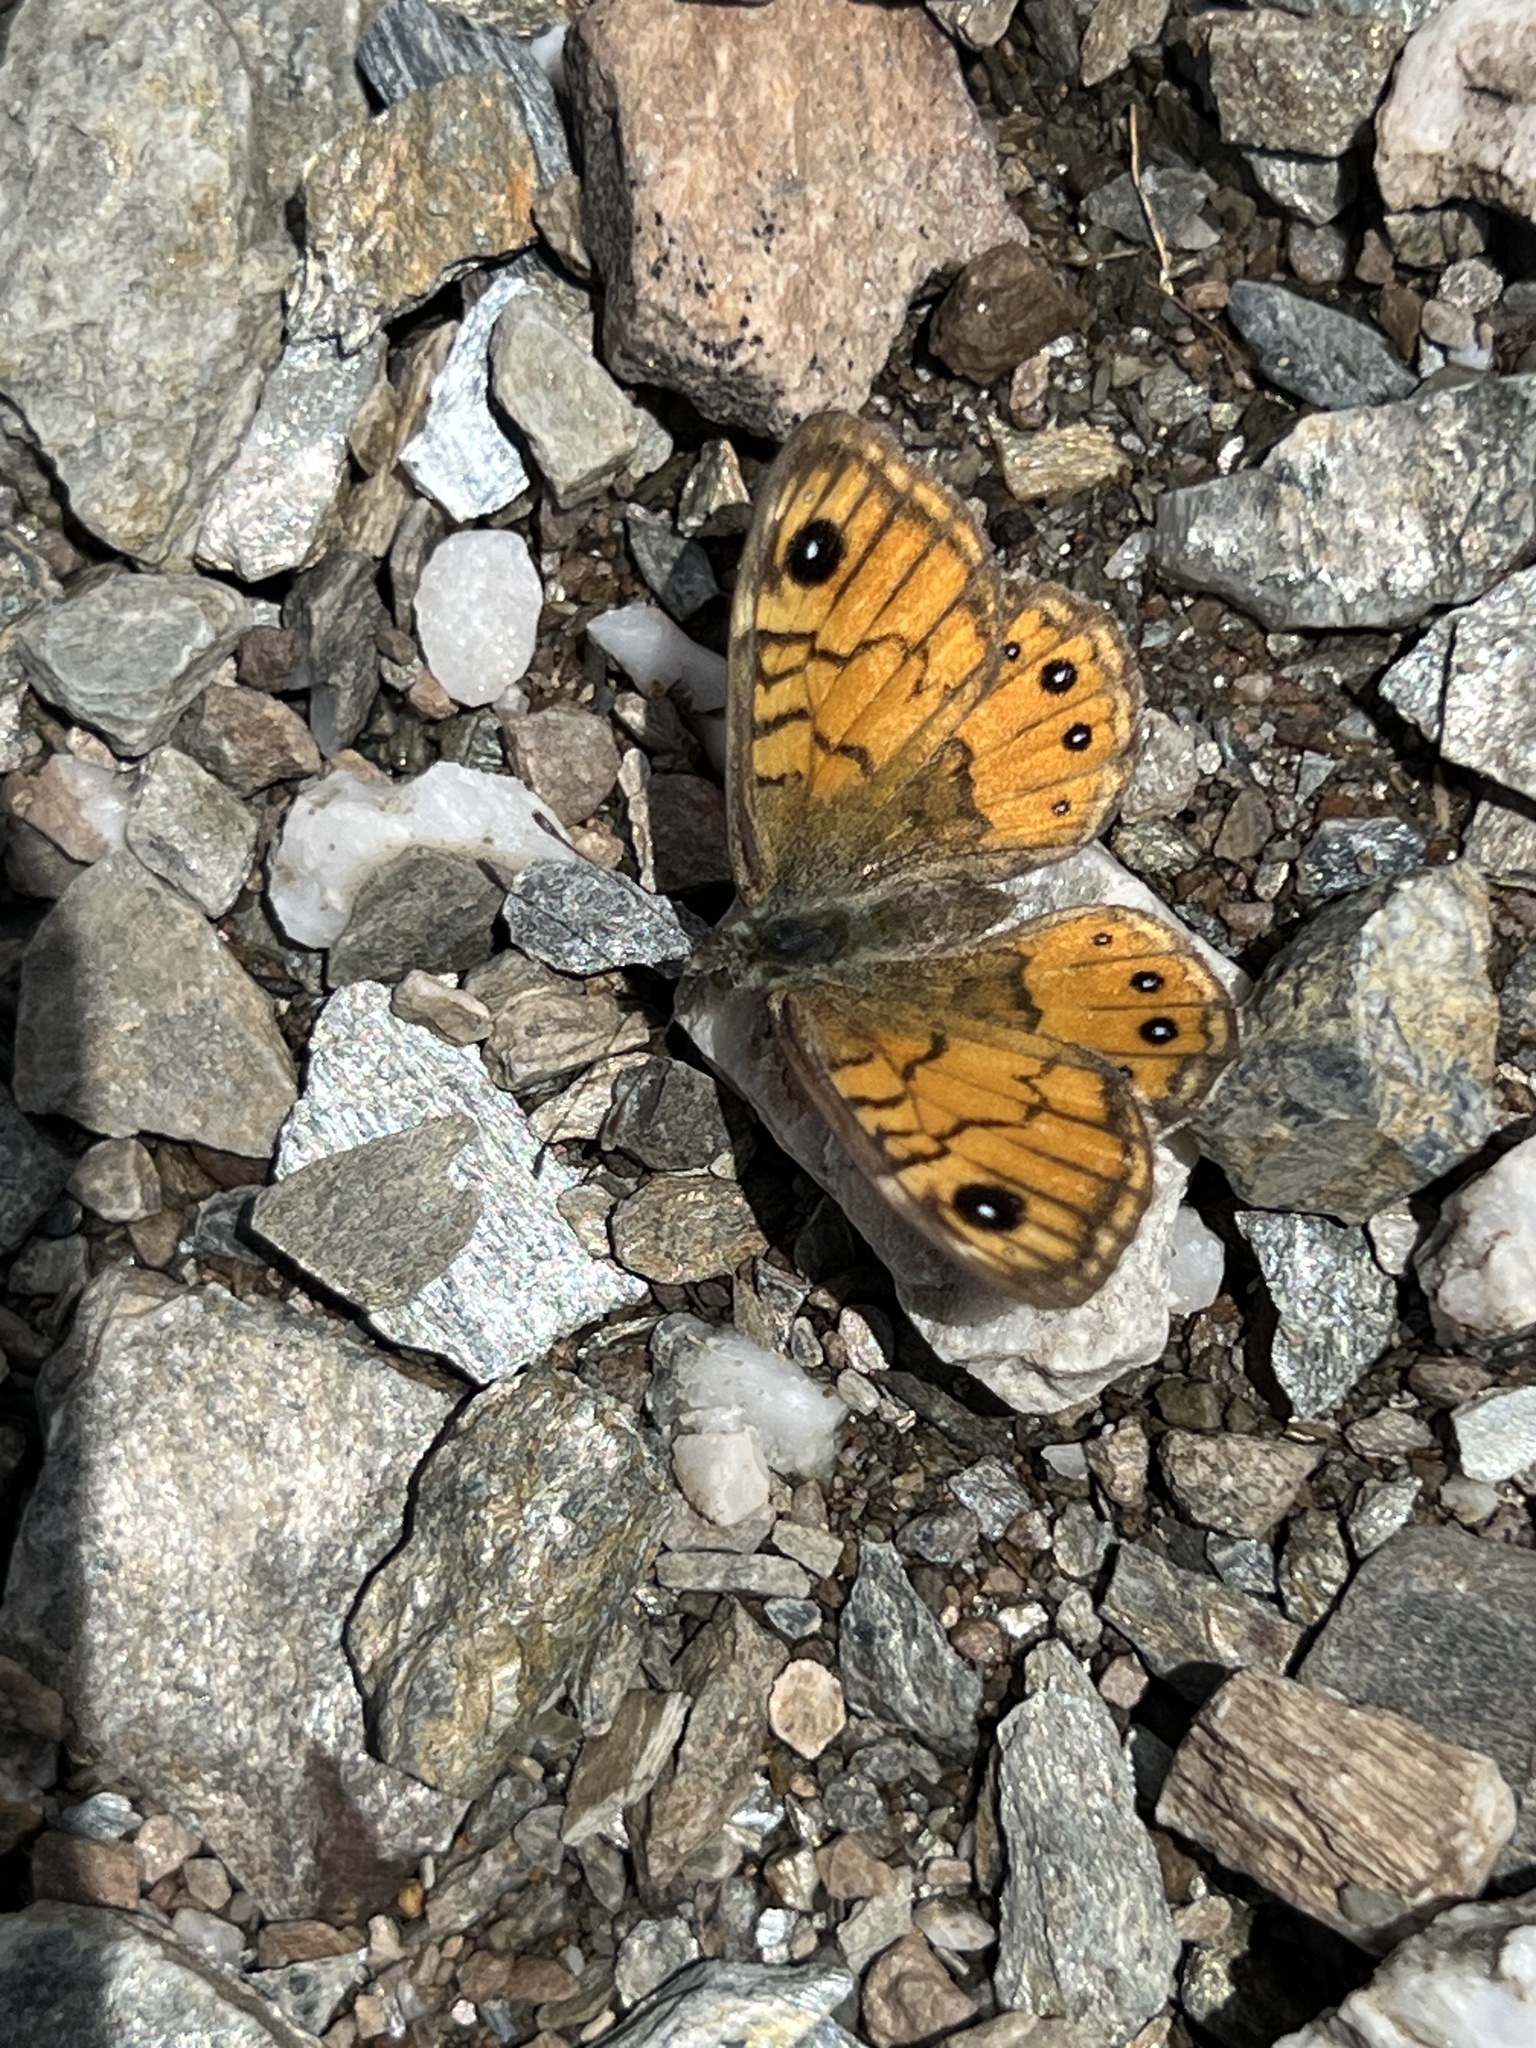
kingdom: Animalia
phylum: Arthropoda
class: Insecta
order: Lepidoptera
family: Nymphalidae
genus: Pararge
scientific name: Pararge Lasiommata paramegaera
